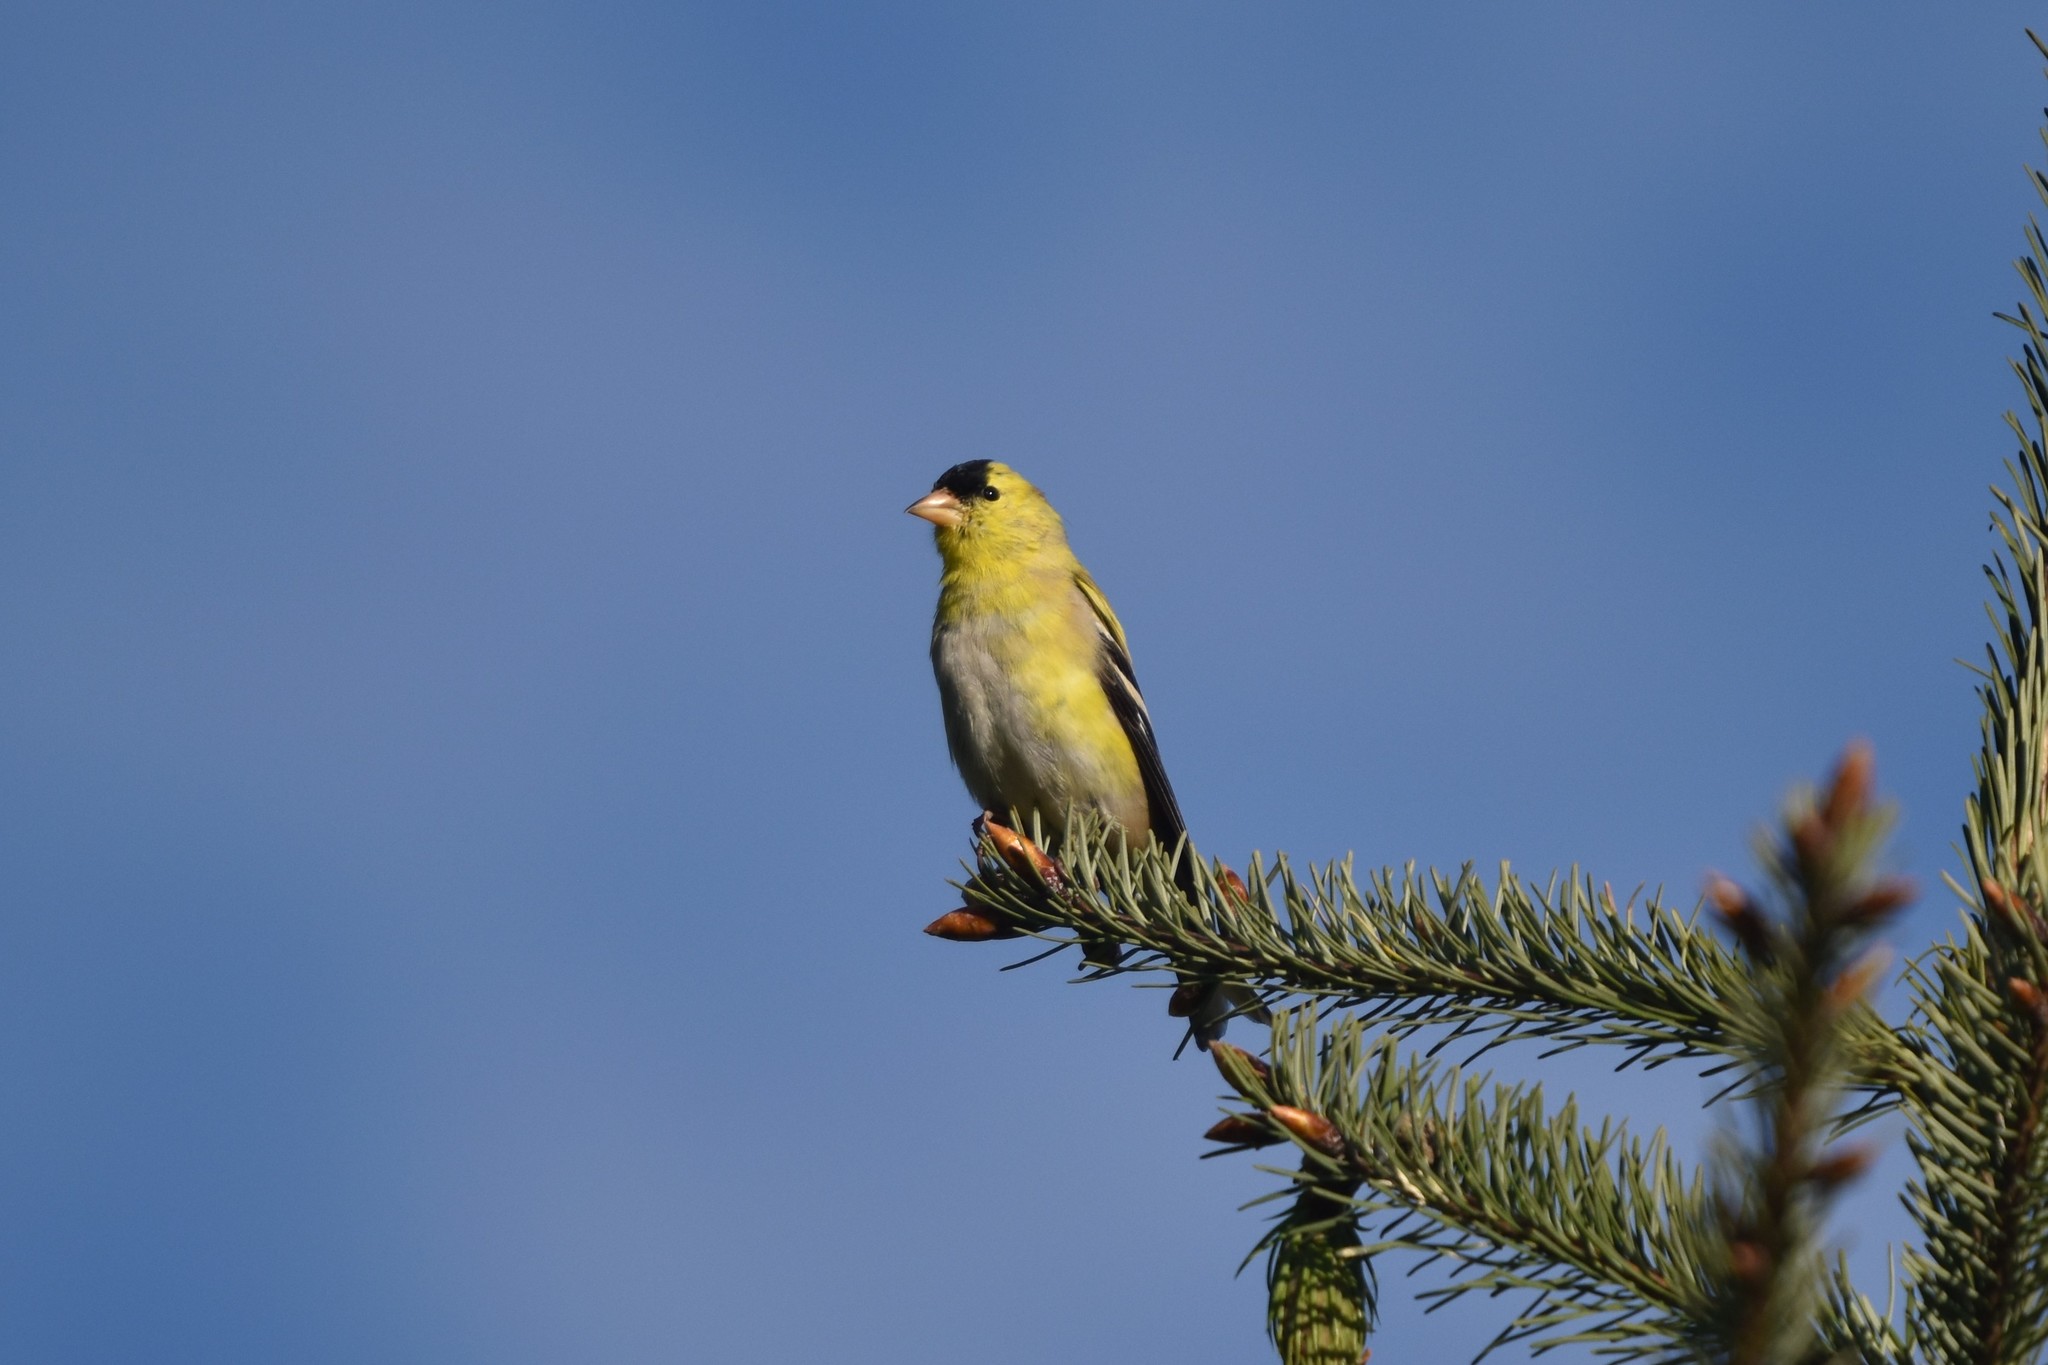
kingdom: Animalia
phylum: Chordata
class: Aves
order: Passeriformes
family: Fringillidae
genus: Spinus
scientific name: Spinus tristis
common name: American goldfinch
